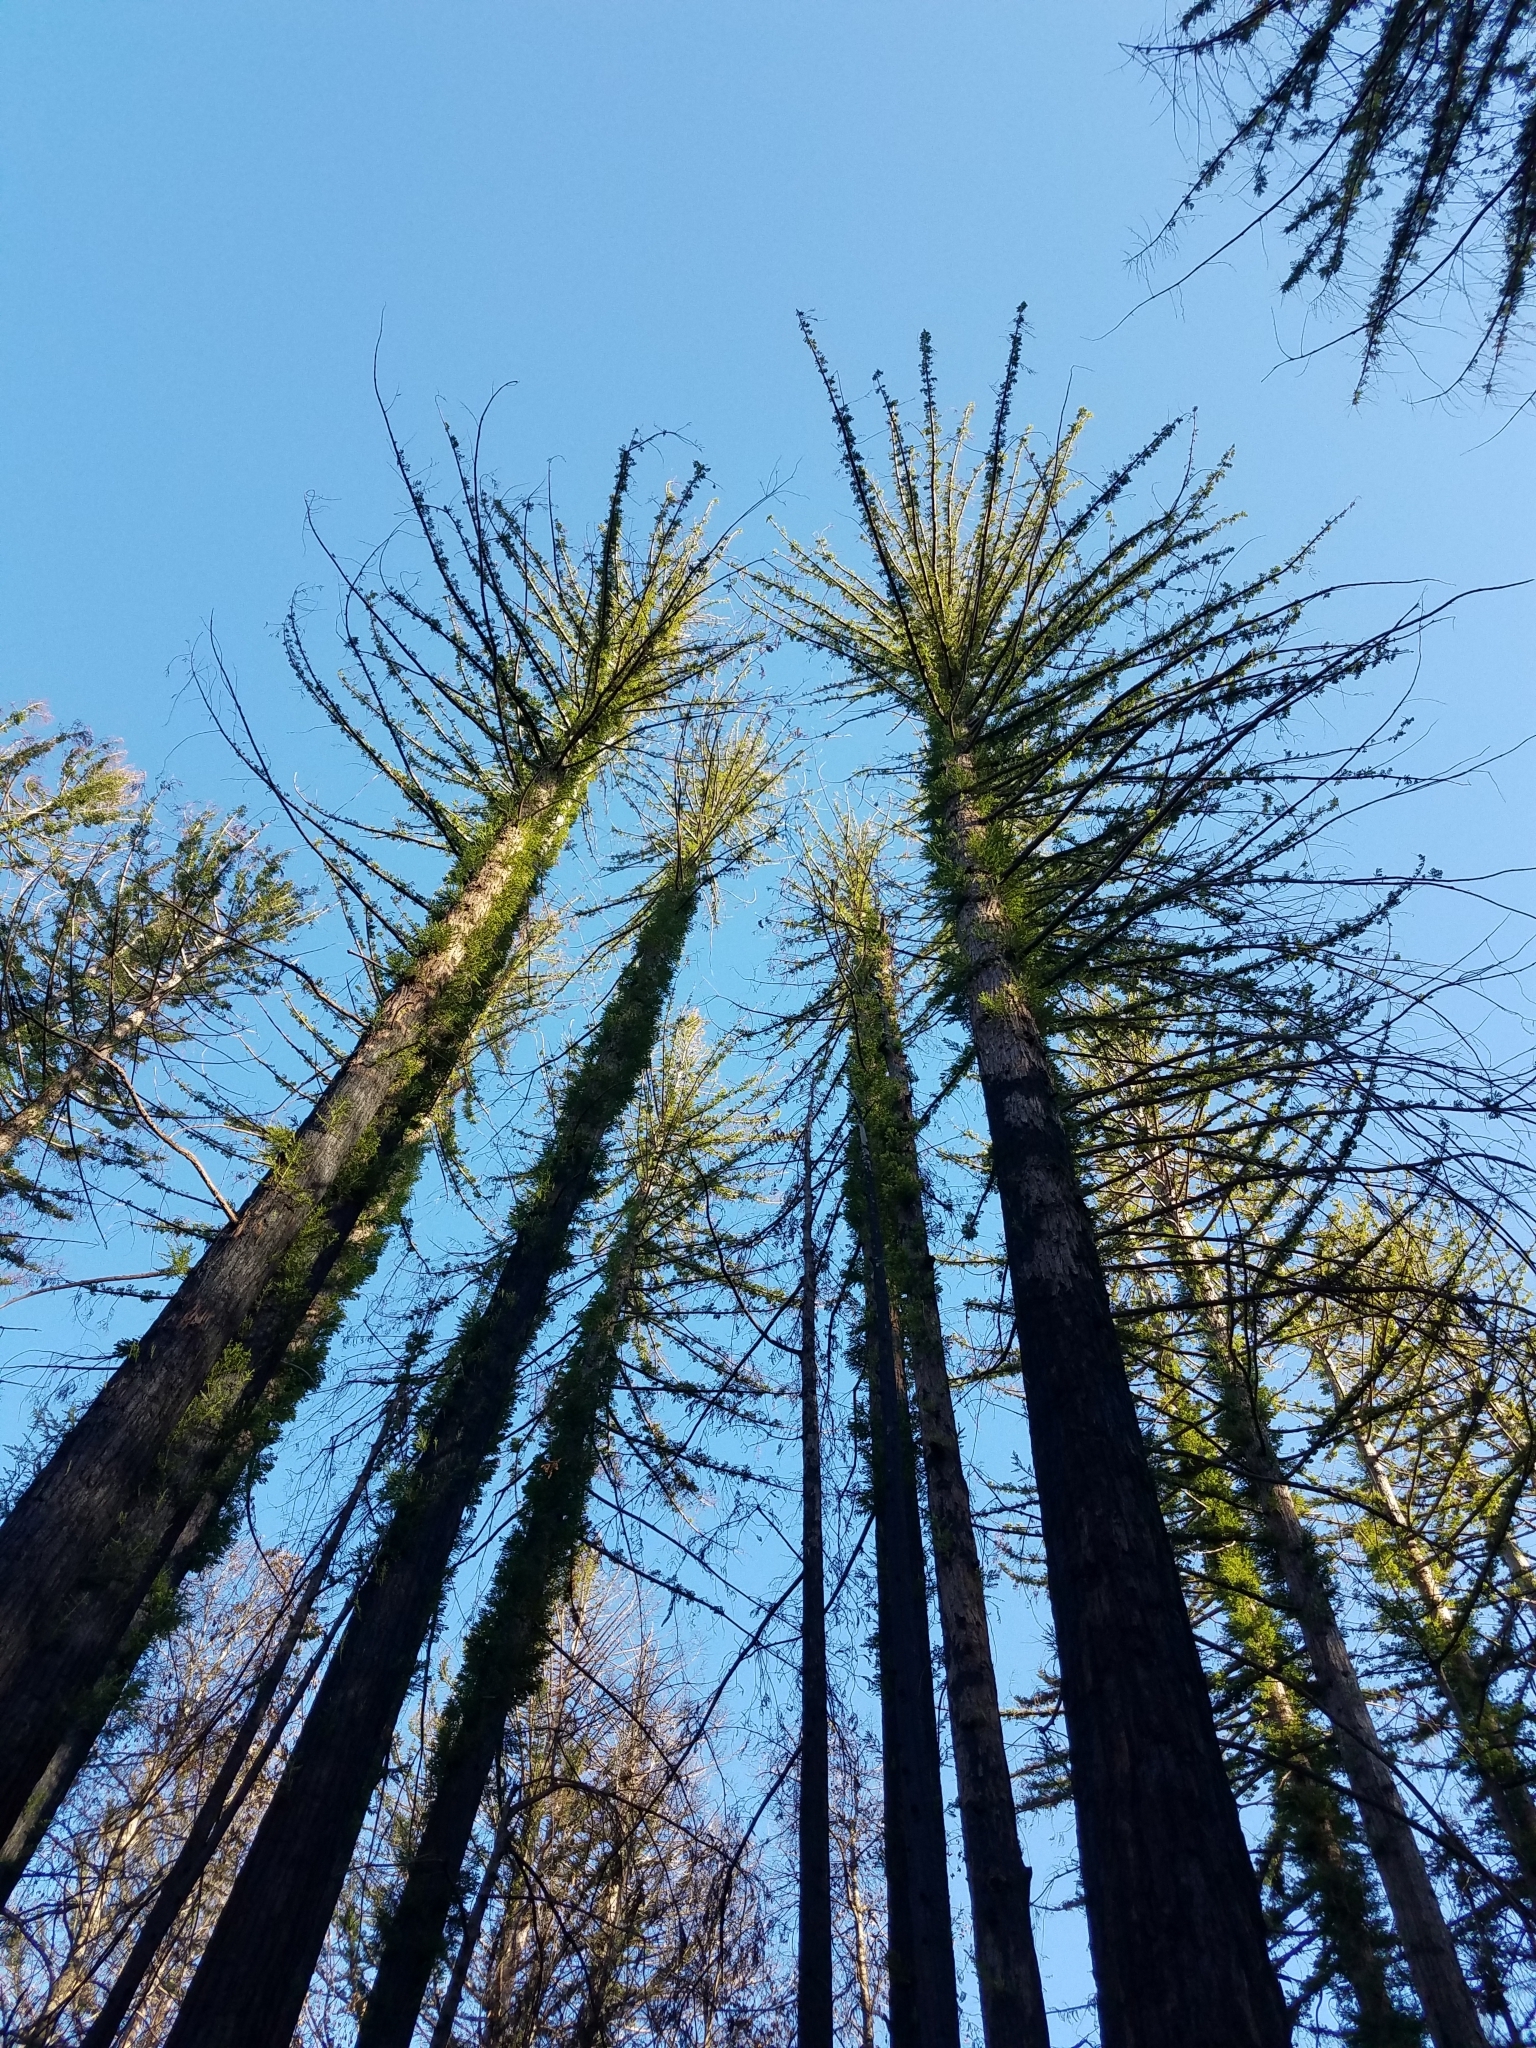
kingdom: Plantae
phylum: Tracheophyta
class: Pinopsida
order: Pinales
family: Cupressaceae
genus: Sequoia
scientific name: Sequoia sempervirens
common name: Coast redwood
